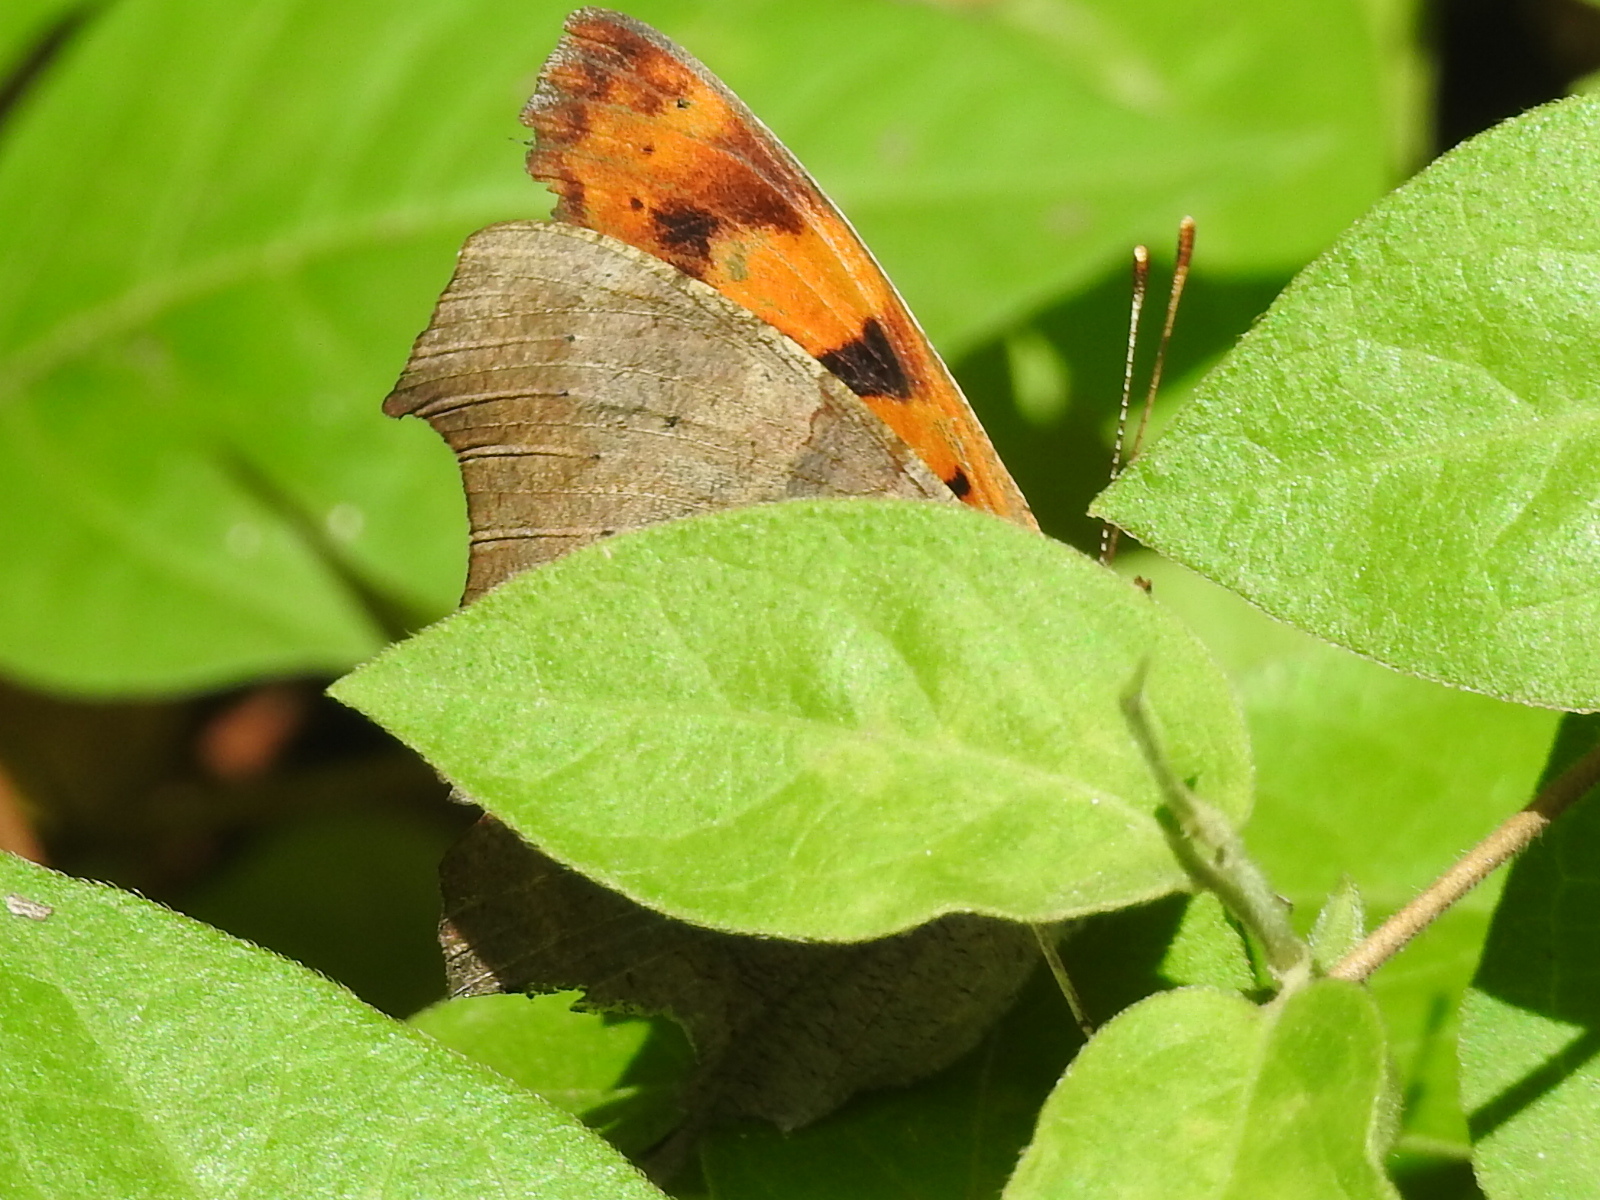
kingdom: Animalia
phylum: Arthropoda
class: Insecta
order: Lepidoptera
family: Nymphalidae
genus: Polygonia
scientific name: Polygonia interrogationis
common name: Question mark
